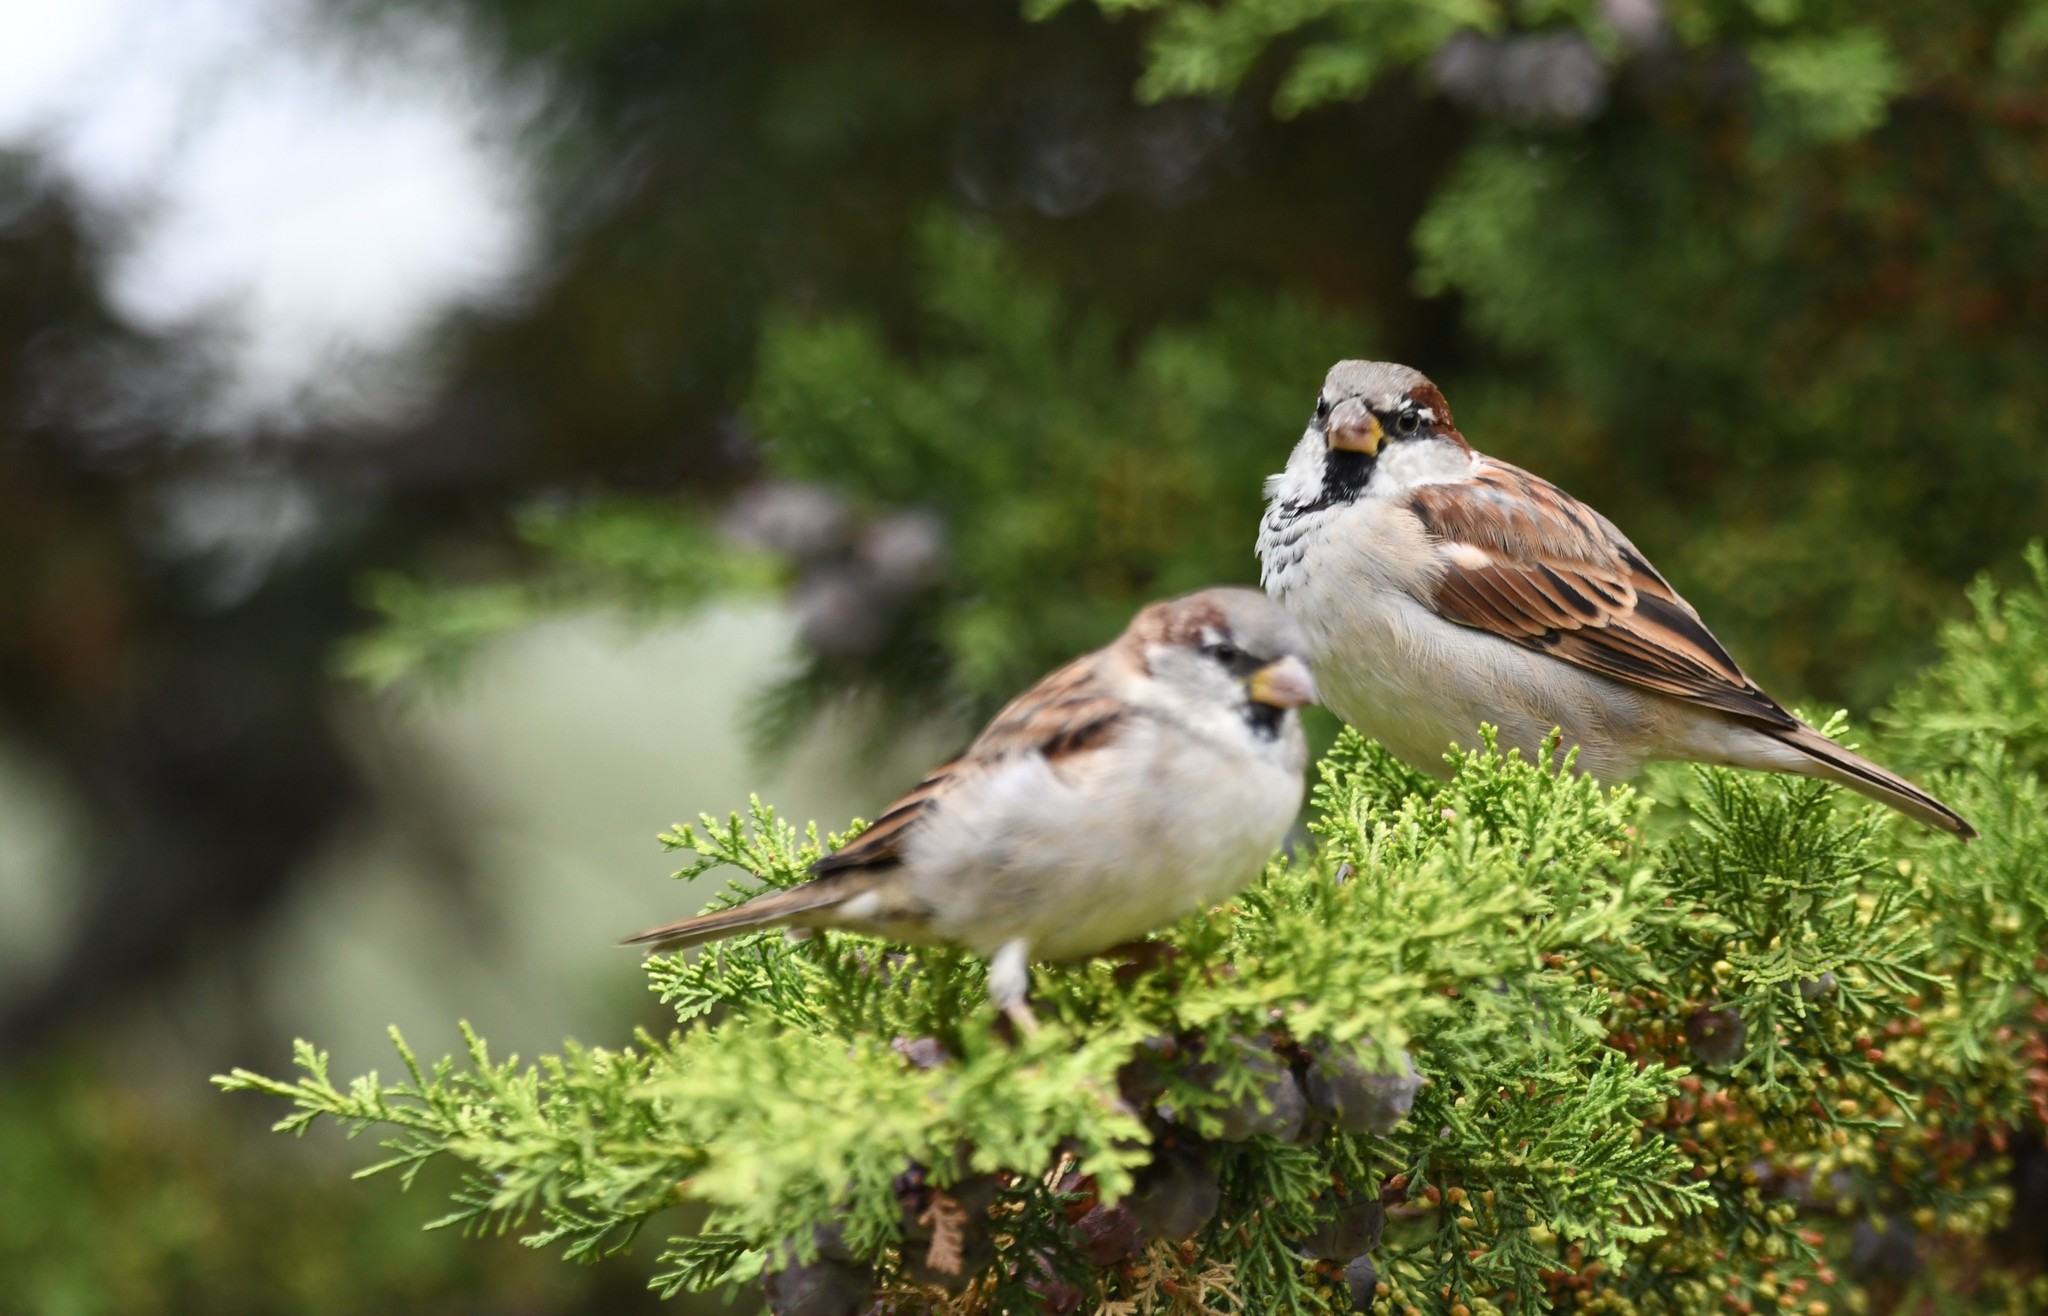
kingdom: Animalia
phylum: Chordata
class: Aves
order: Passeriformes
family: Passeridae
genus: Passer
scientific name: Passer domesticus
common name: House sparrow
